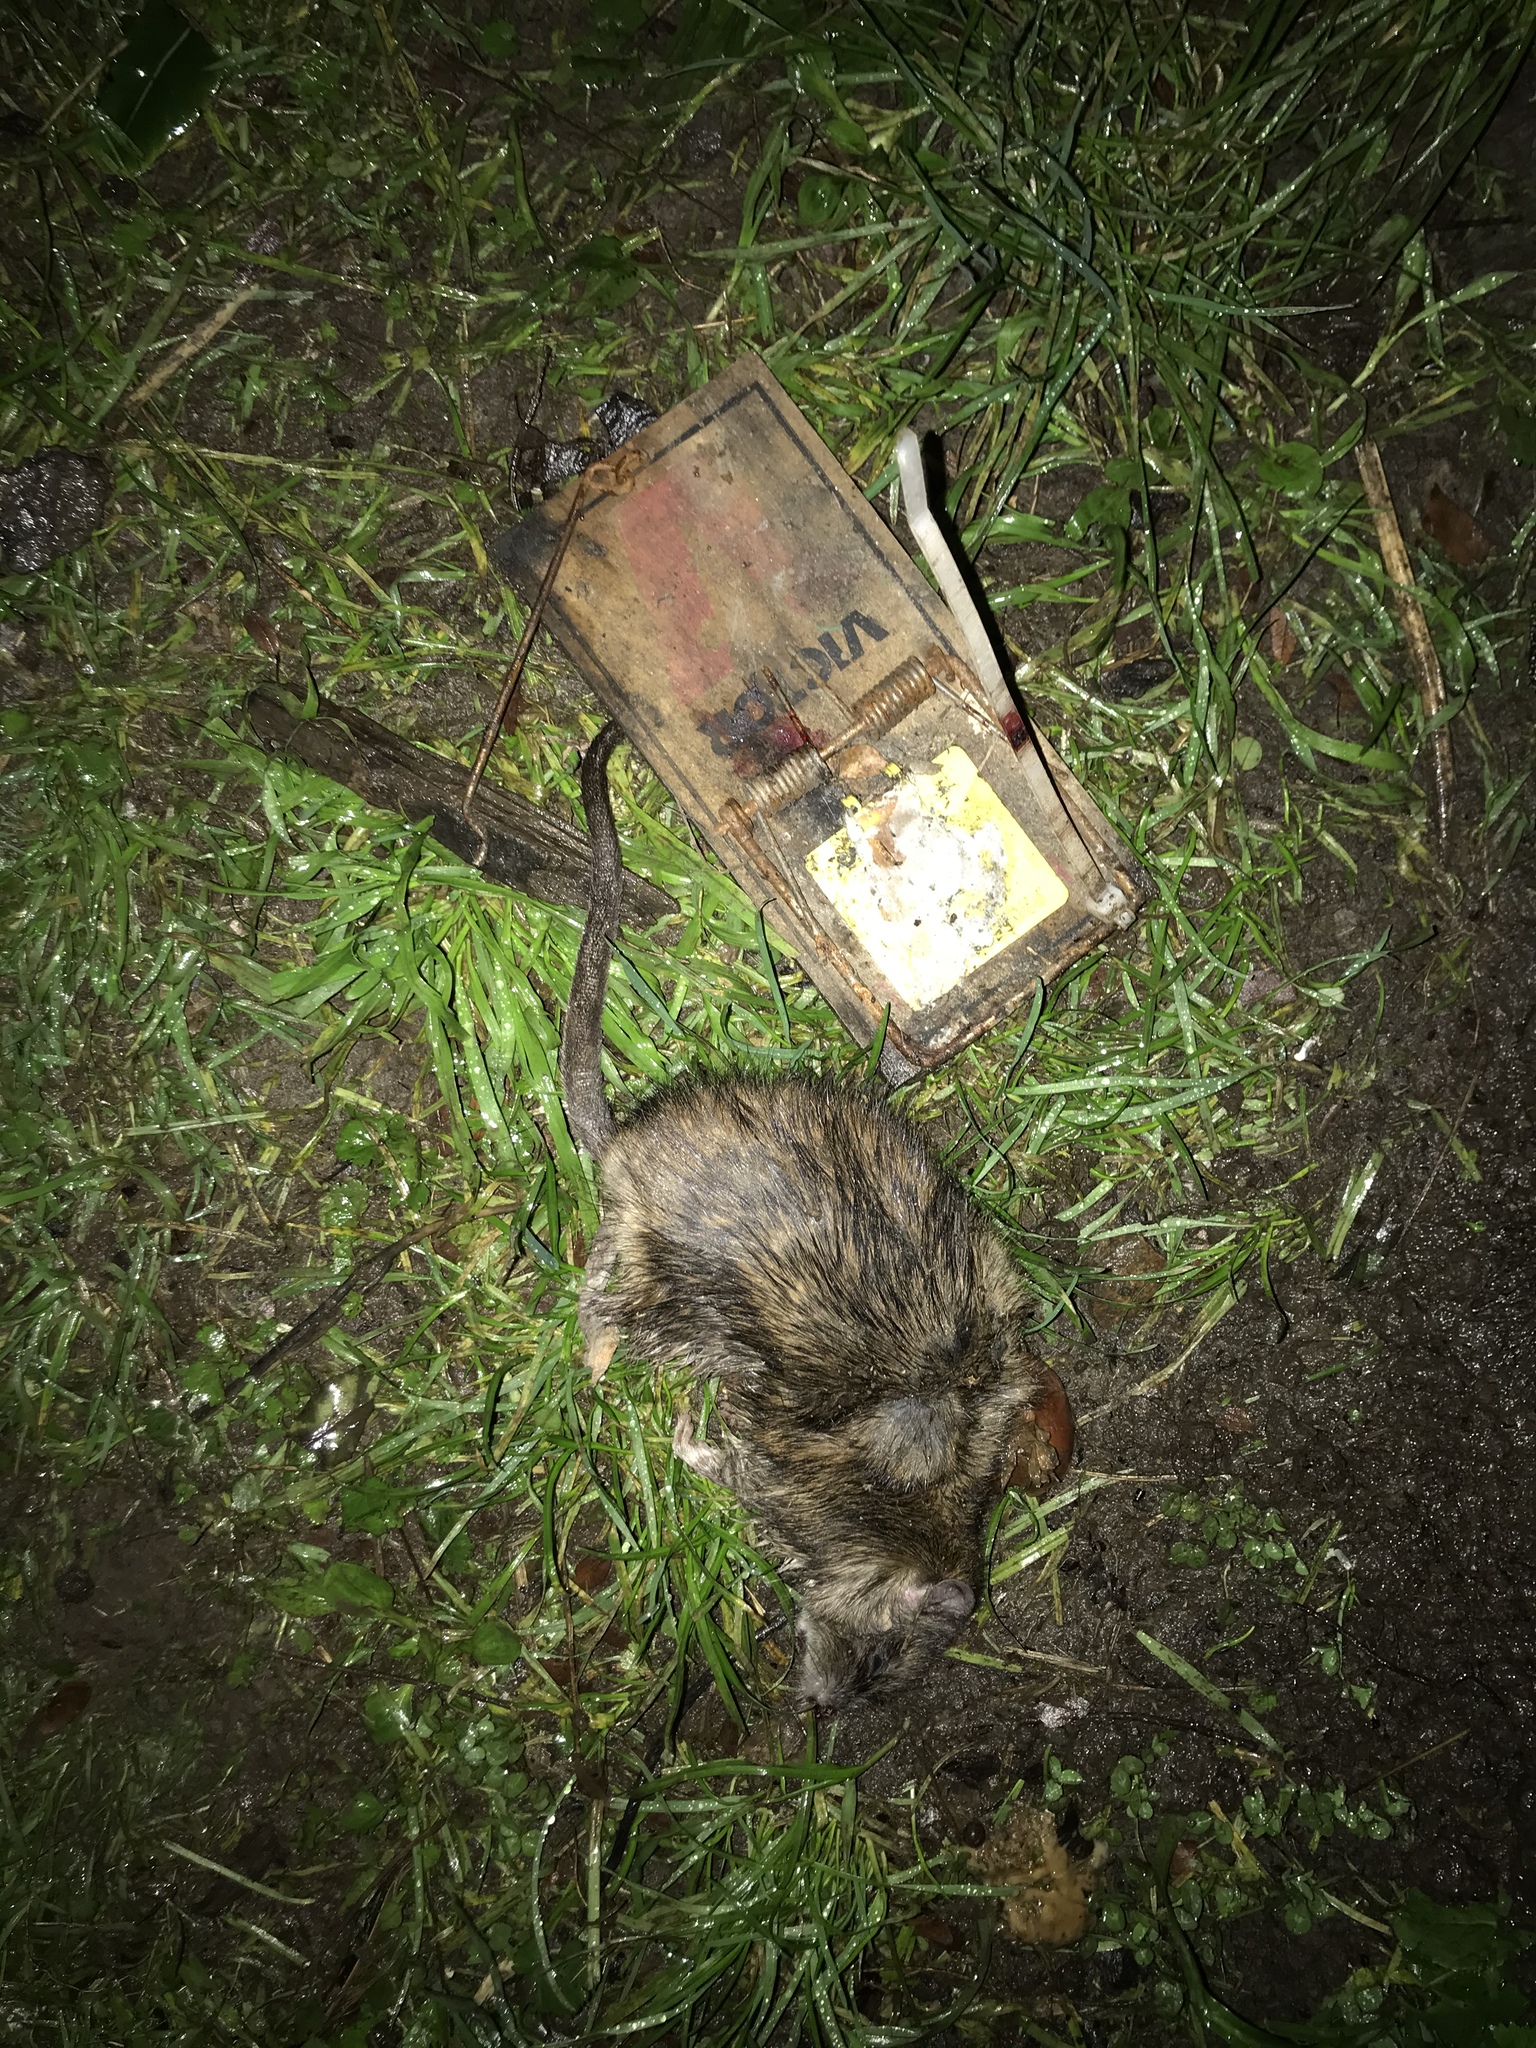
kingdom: Animalia
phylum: Chordata
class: Mammalia
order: Rodentia
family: Muridae
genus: Rattus
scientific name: Rattus norvegicus
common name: Brown rat
